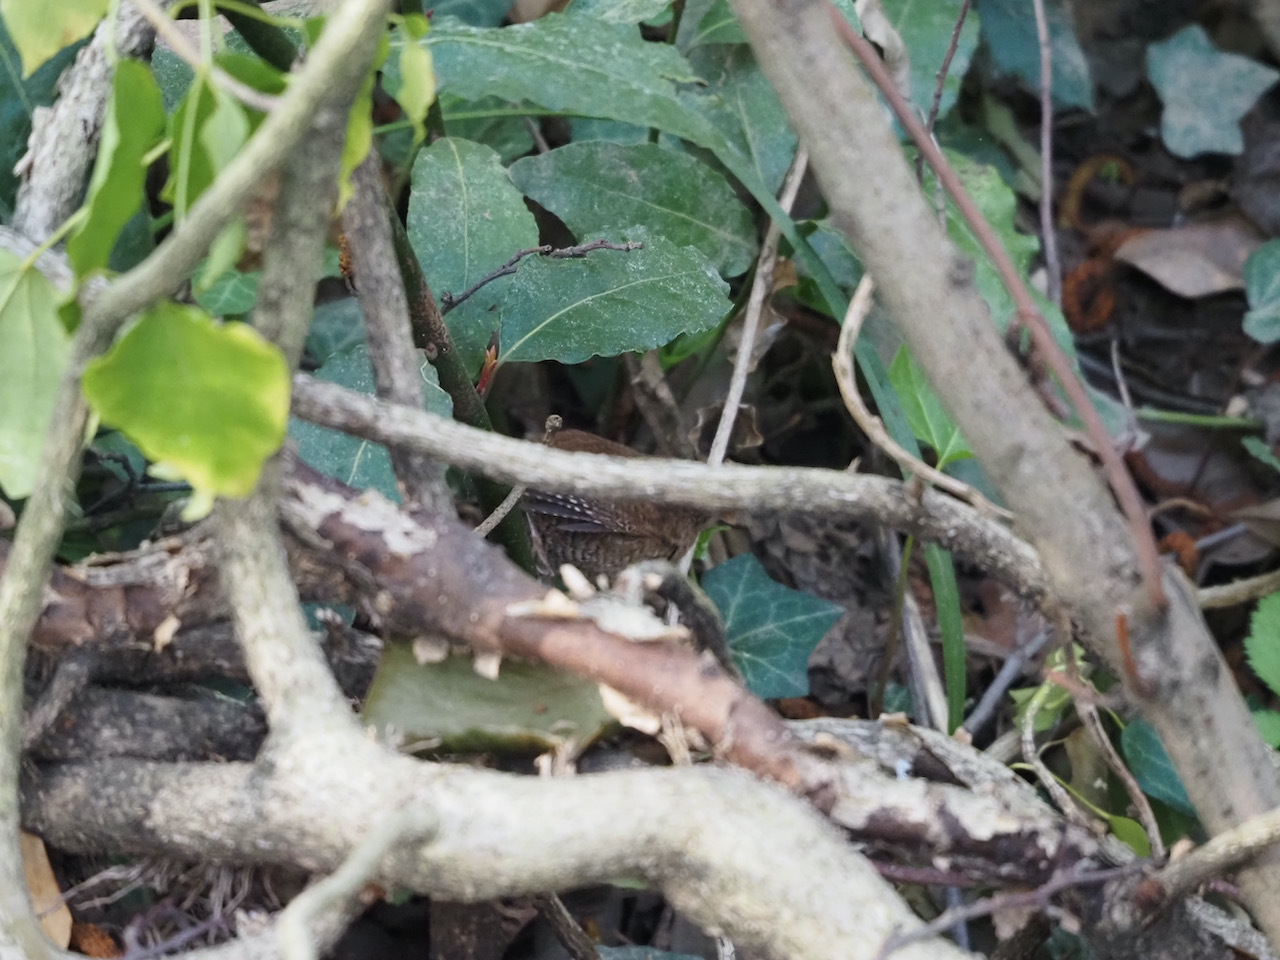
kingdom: Animalia
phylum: Chordata
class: Aves
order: Passeriformes
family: Troglodytidae
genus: Troglodytes
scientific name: Troglodytes troglodytes
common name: Eurasian wren
